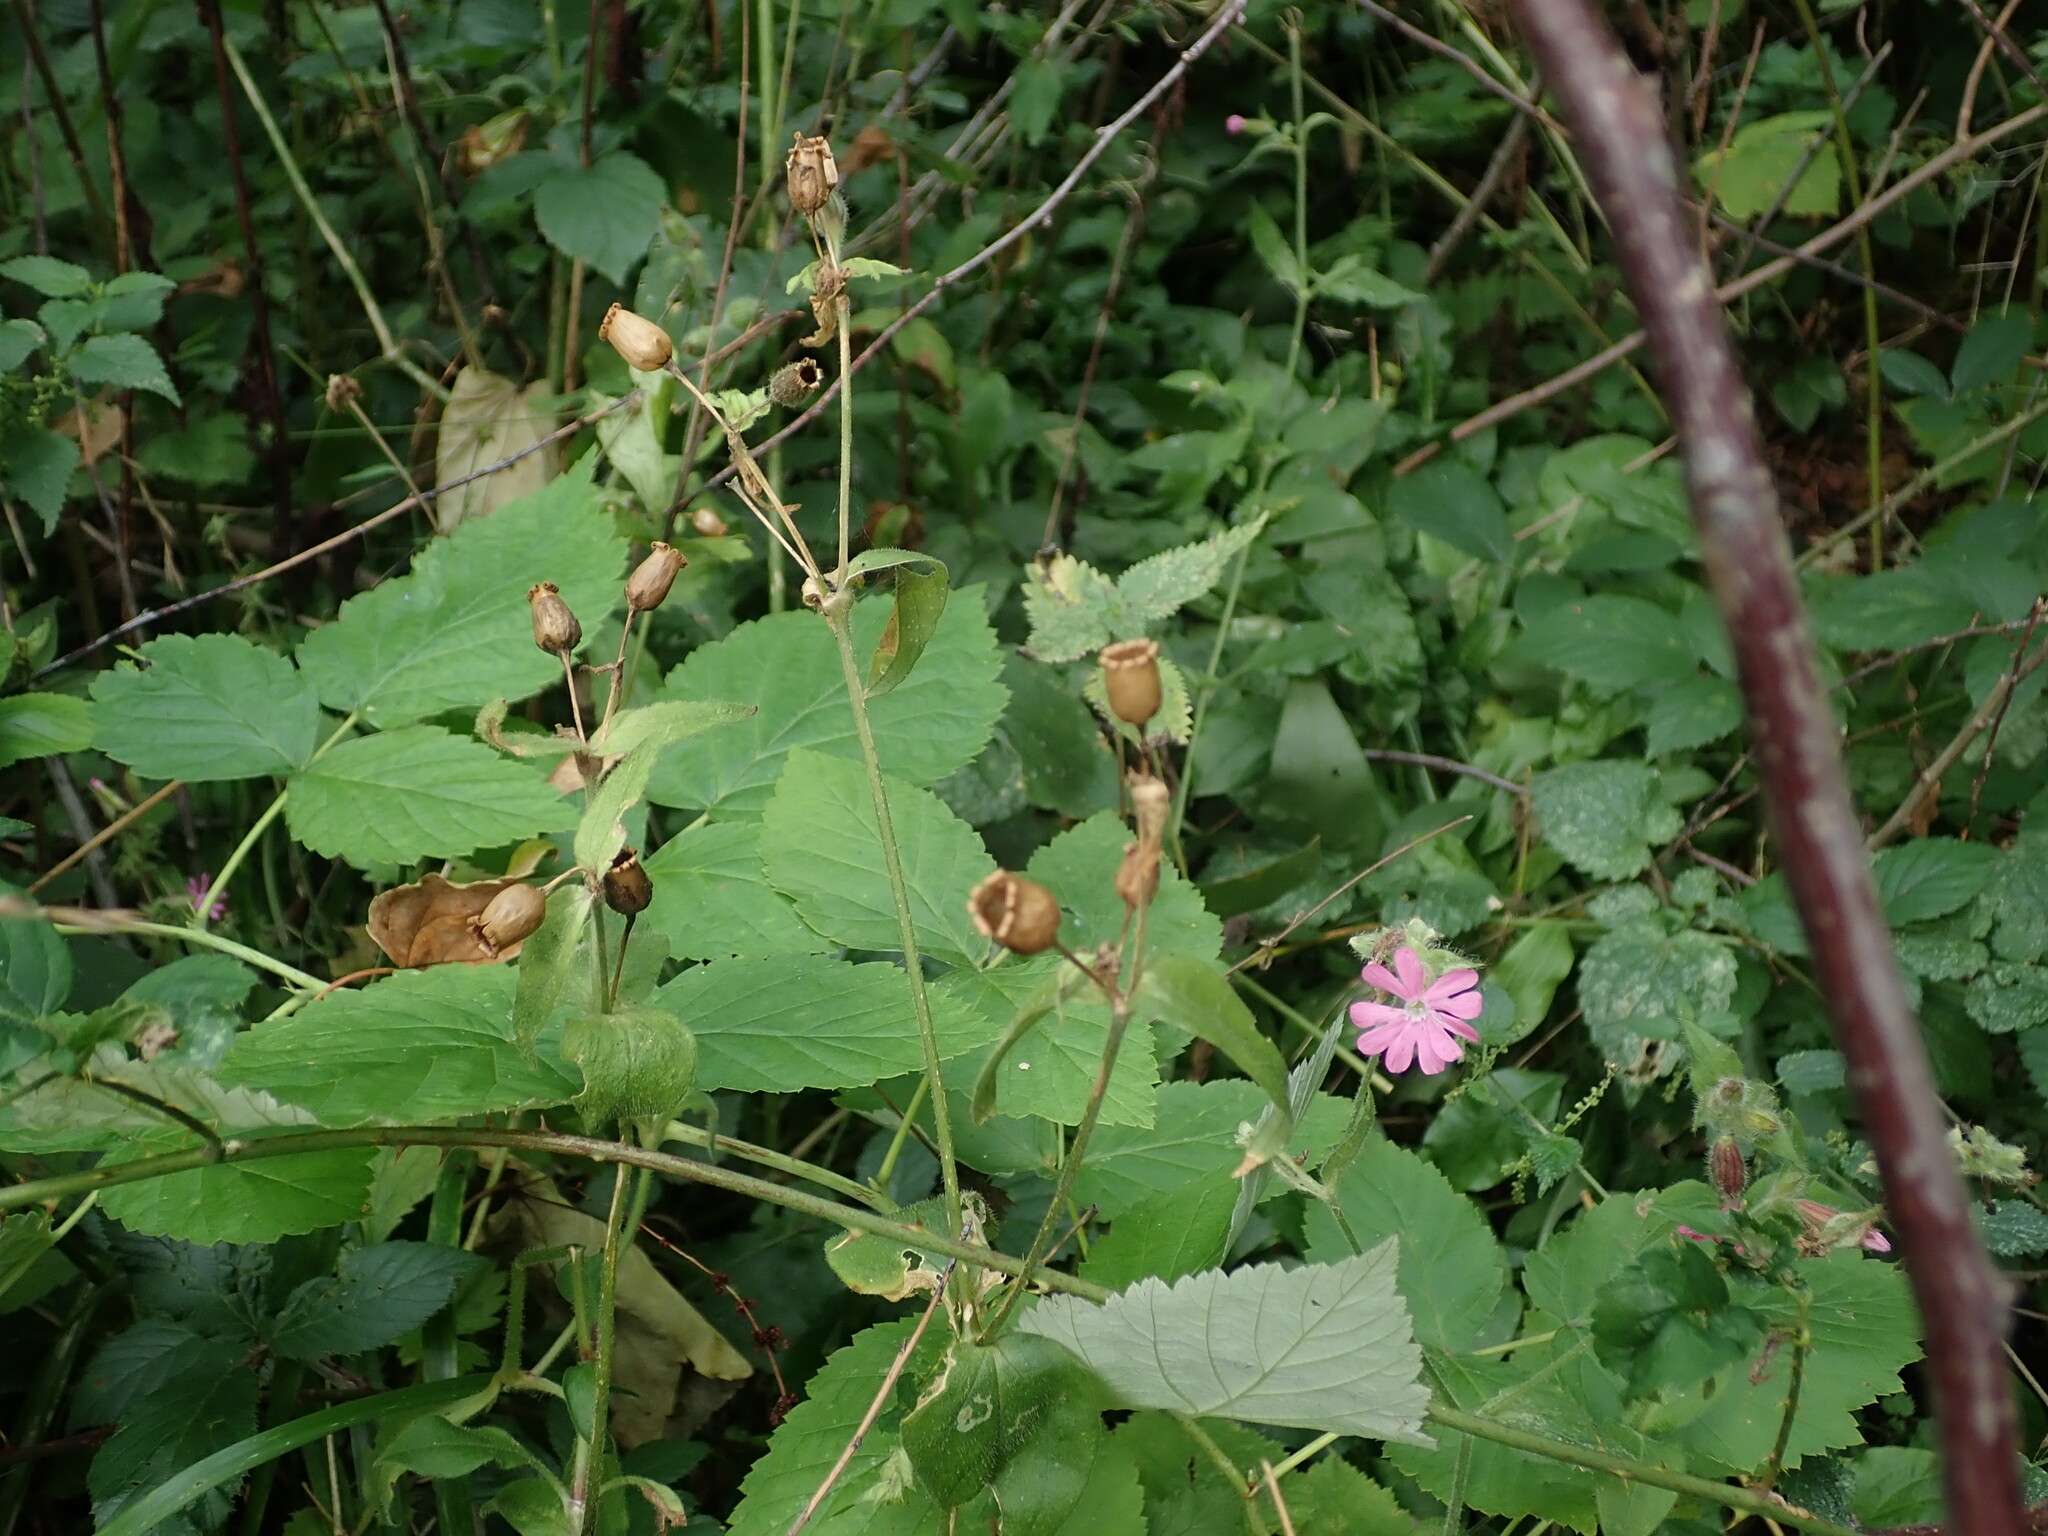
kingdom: Plantae
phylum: Tracheophyta
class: Magnoliopsida
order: Caryophyllales
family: Caryophyllaceae
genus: Silene
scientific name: Silene dioica
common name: Red campion
